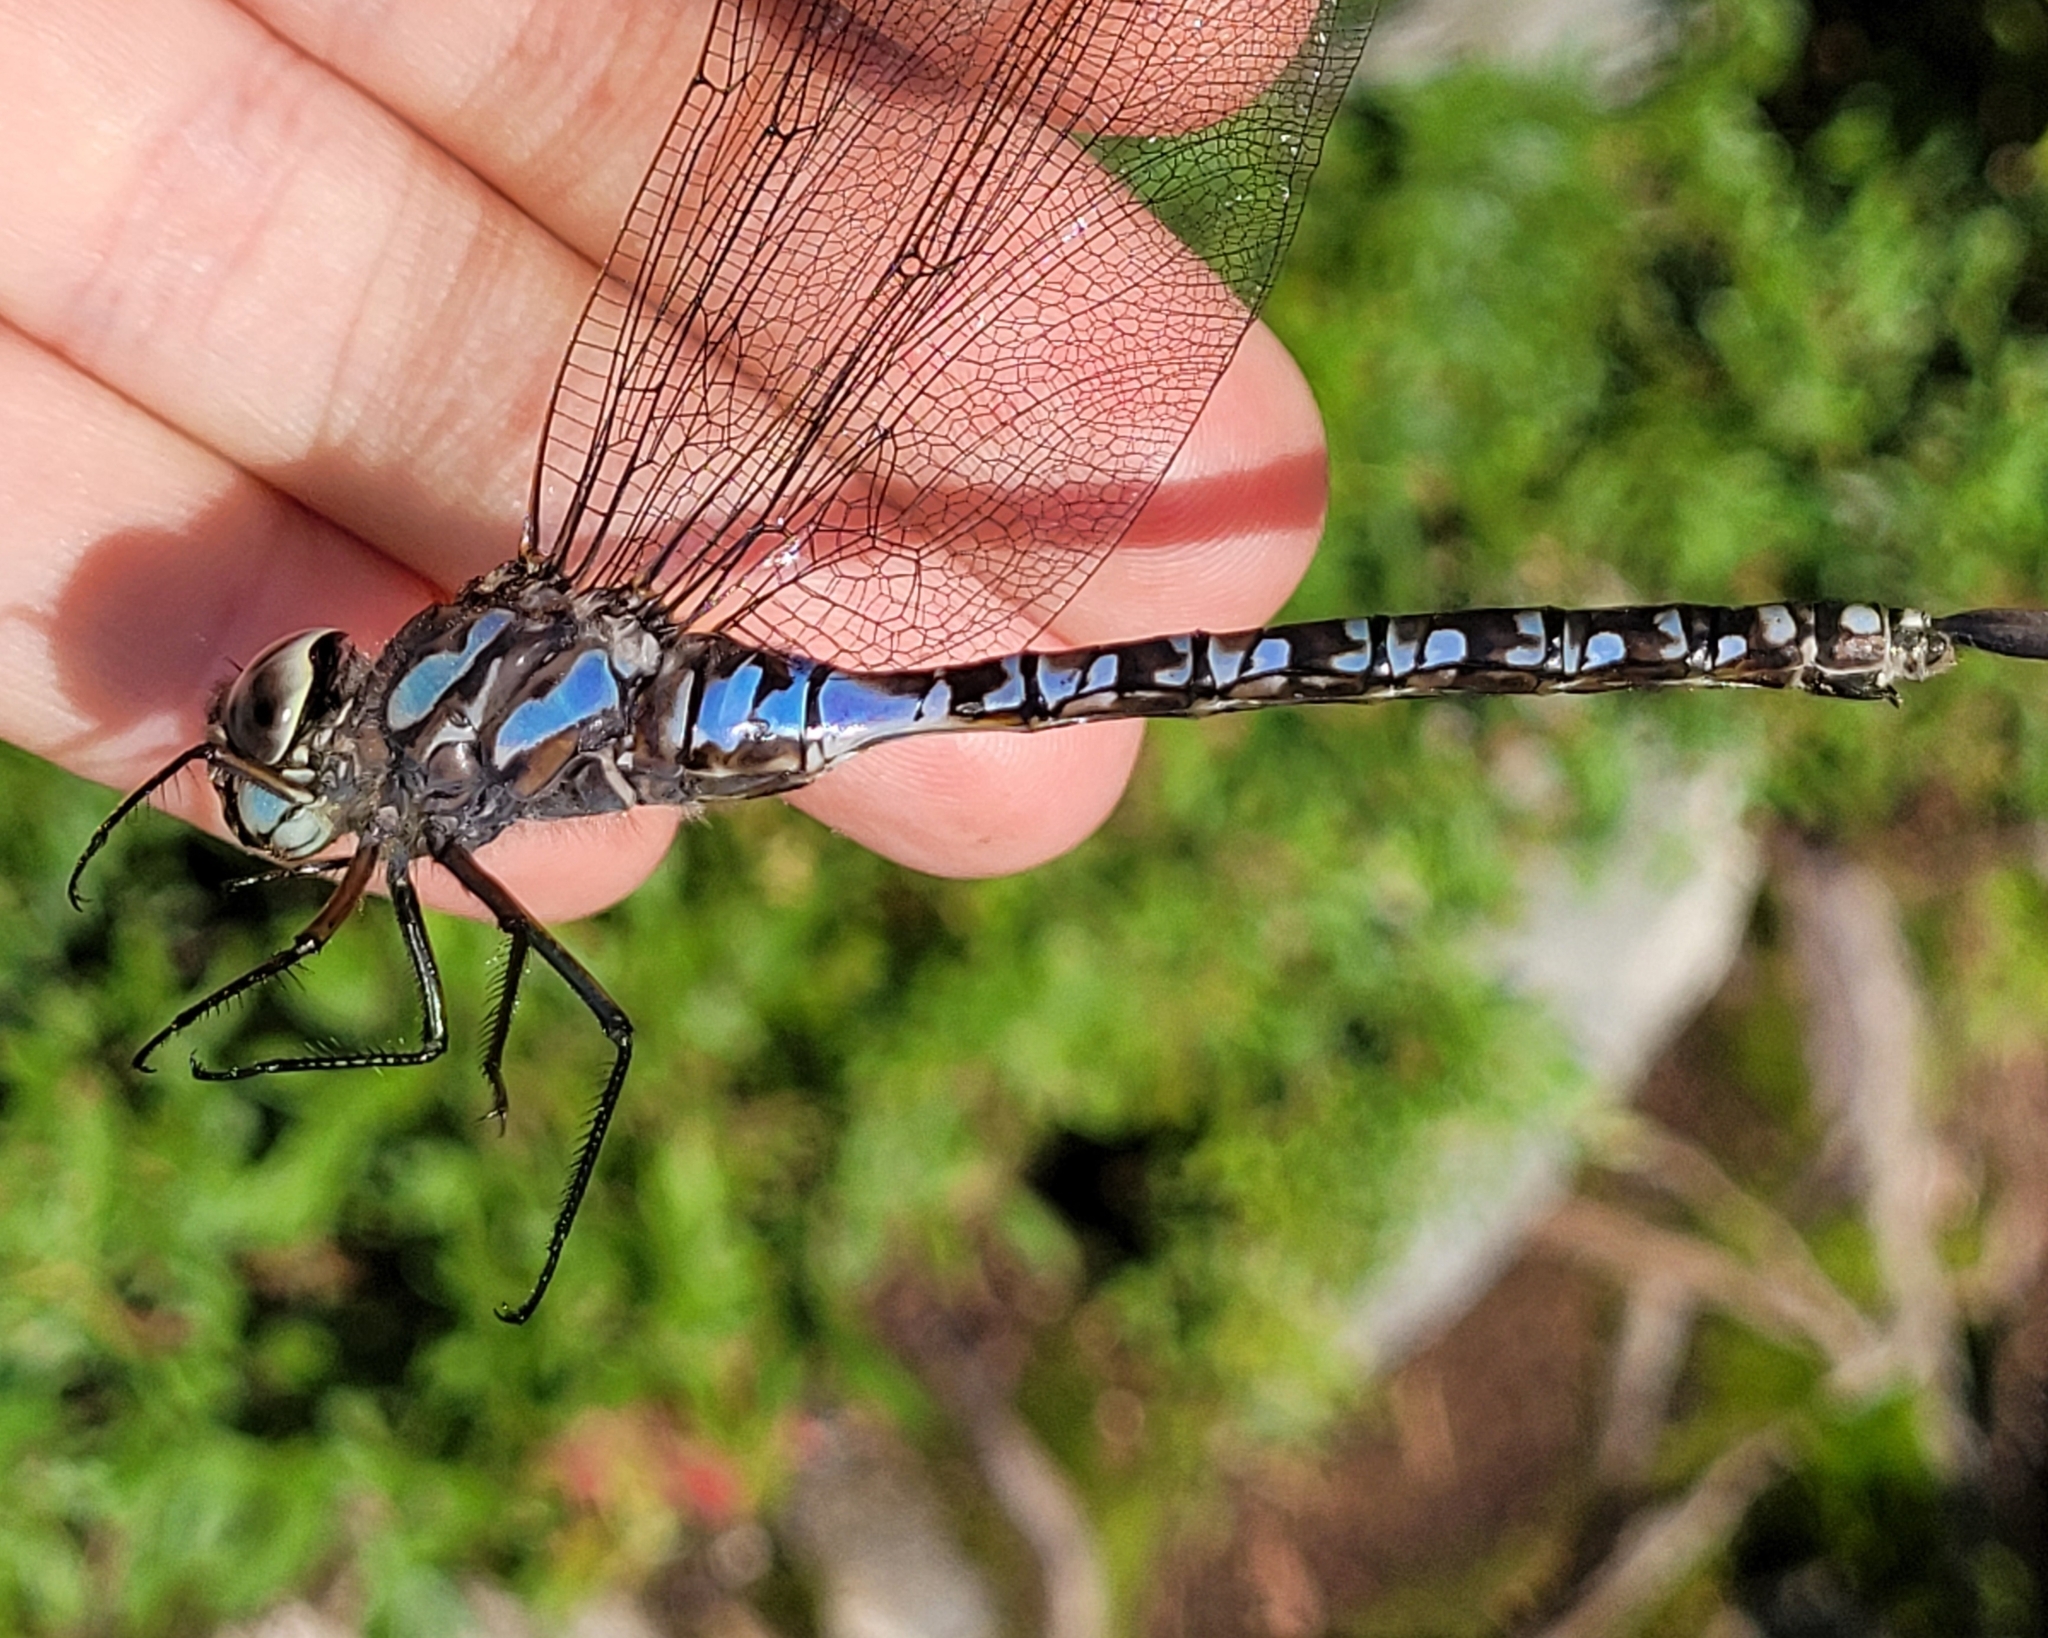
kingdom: Animalia
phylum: Arthropoda
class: Insecta
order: Odonata
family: Aeshnidae
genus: Aeshna
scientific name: Aeshna eremita
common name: Lake darner
